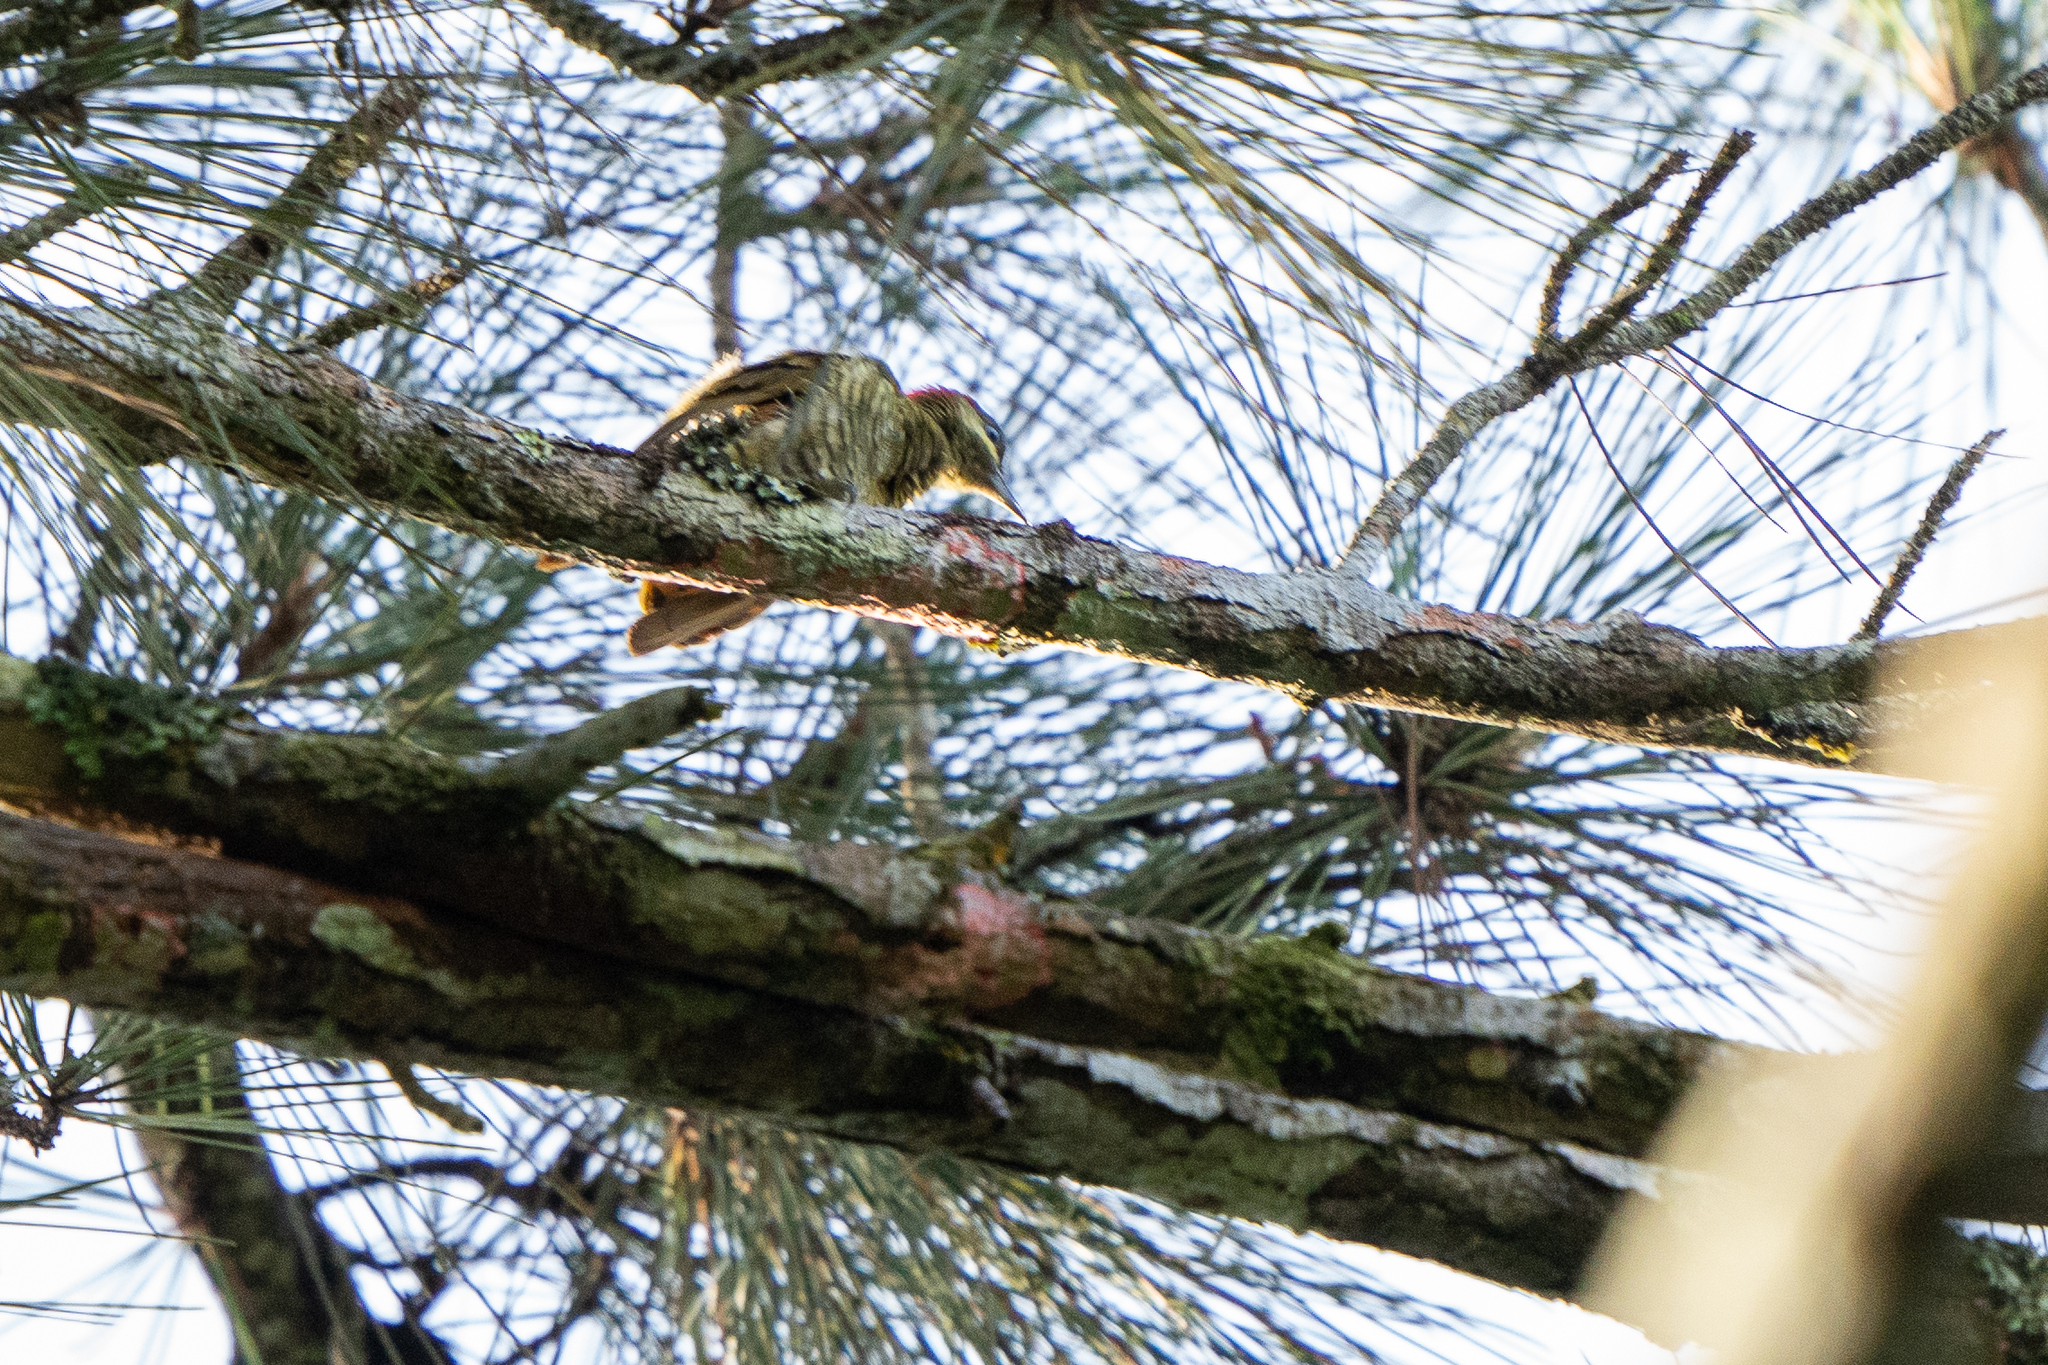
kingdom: Animalia
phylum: Chordata
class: Aves
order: Piciformes
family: Picidae
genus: Piculus
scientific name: Piculus callopterus
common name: Stripe-cheeked woodpecker
